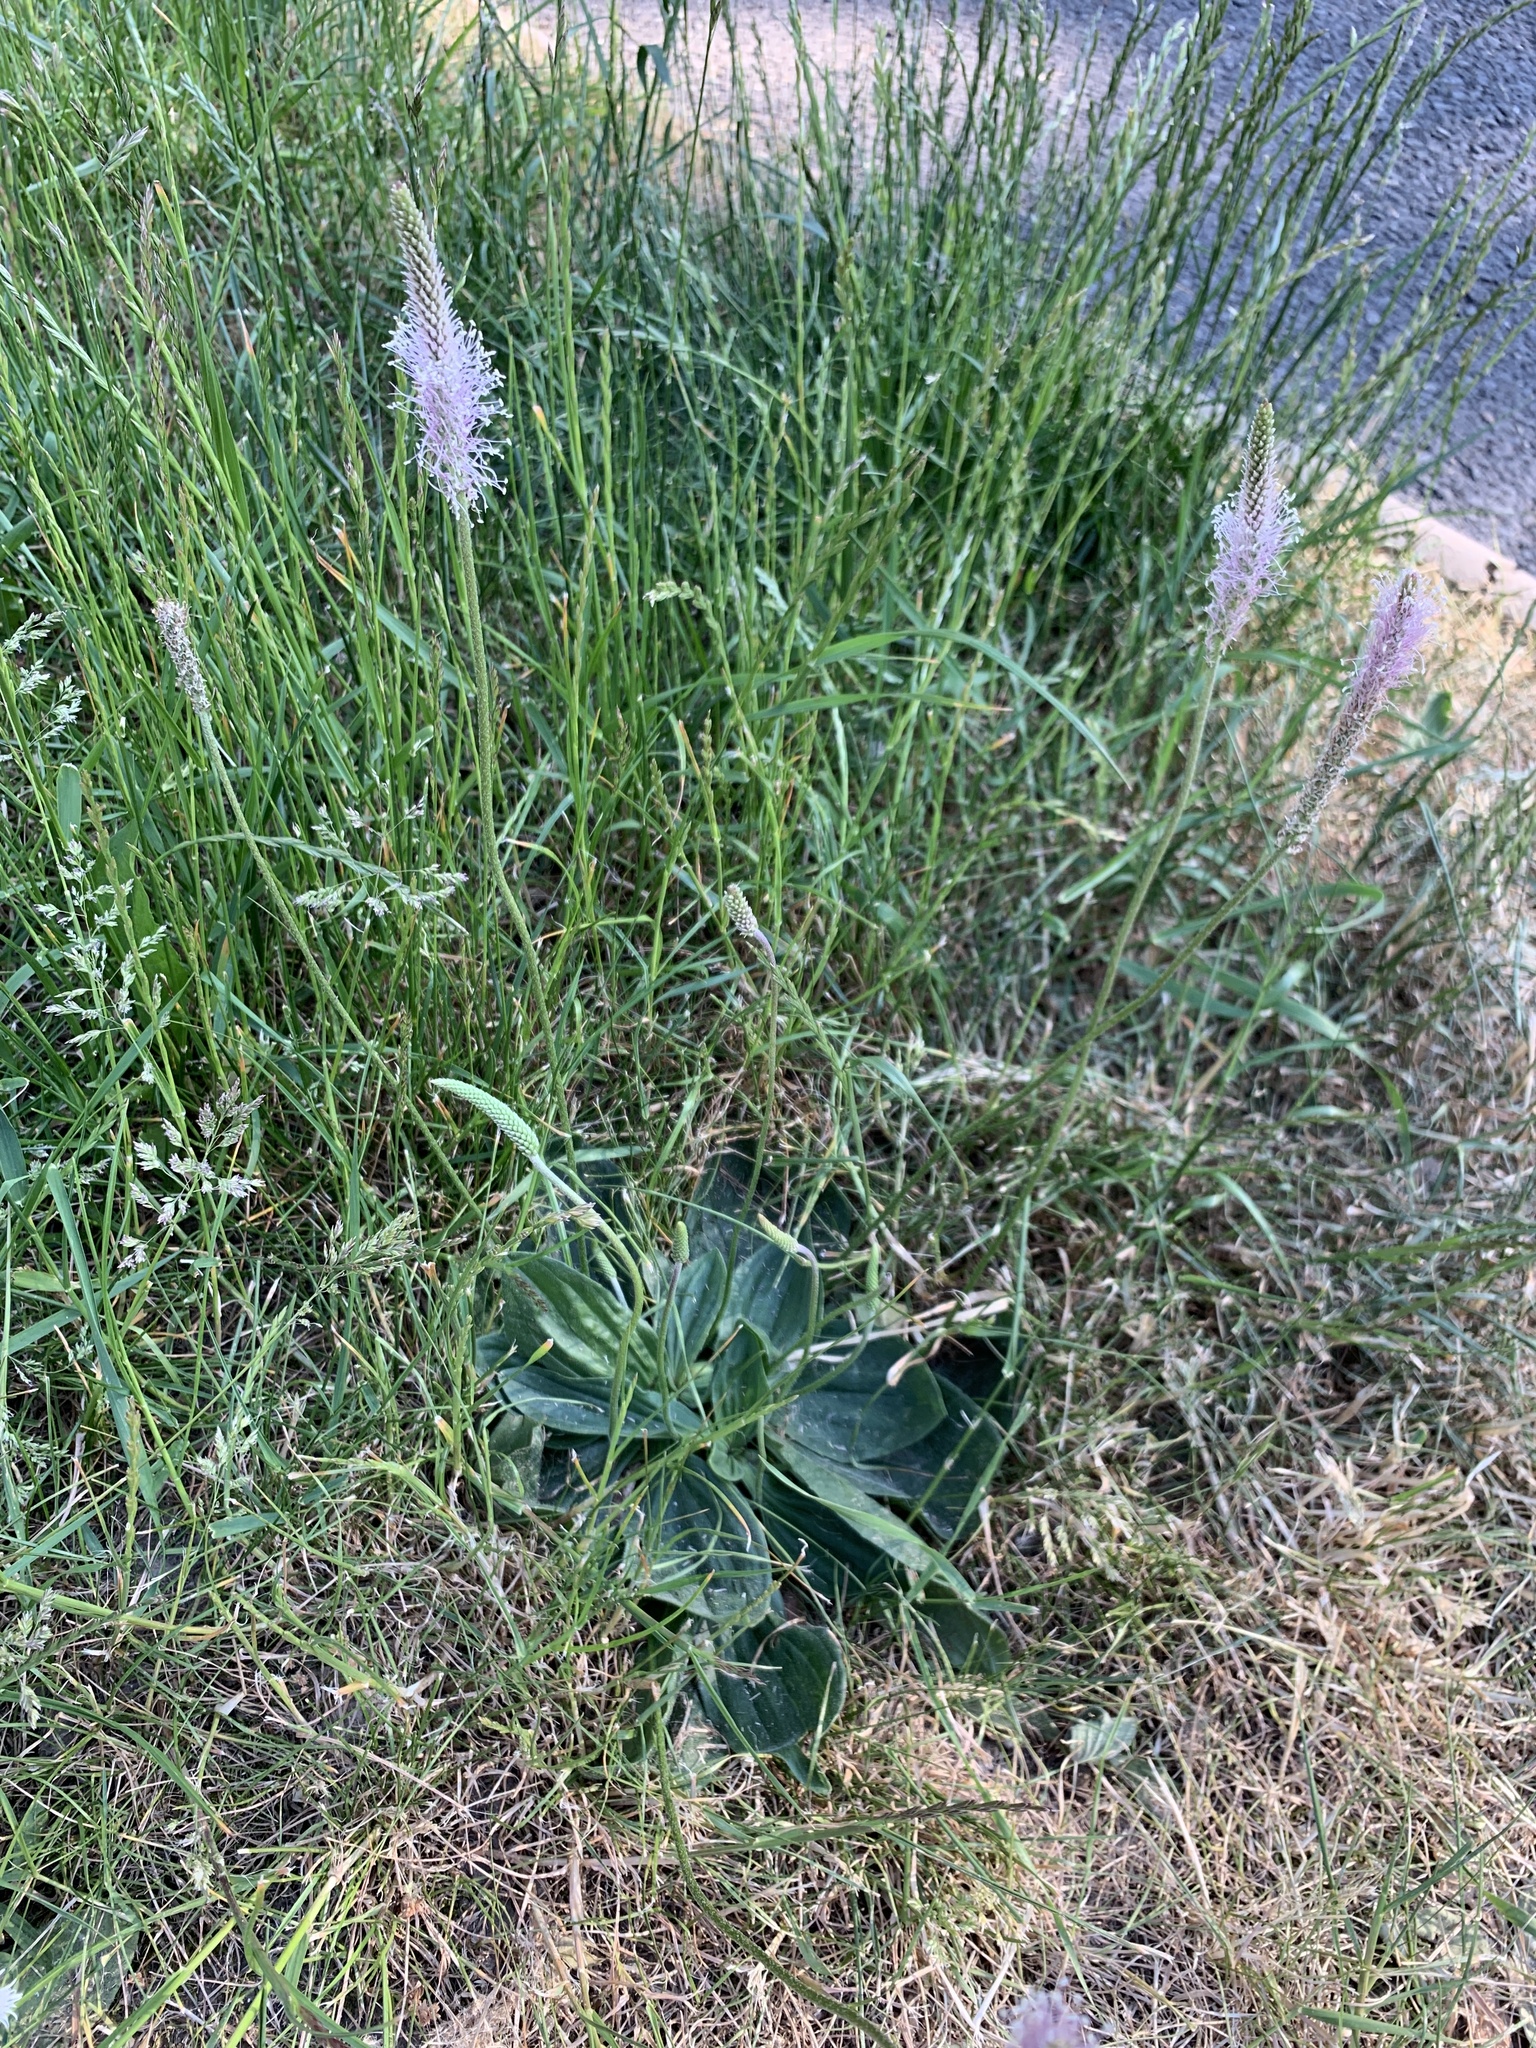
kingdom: Plantae
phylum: Tracheophyta
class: Magnoliopsida
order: Lamiales
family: Plantaginaceae
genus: Plantago
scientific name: Plantago media
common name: Hoary plantain
